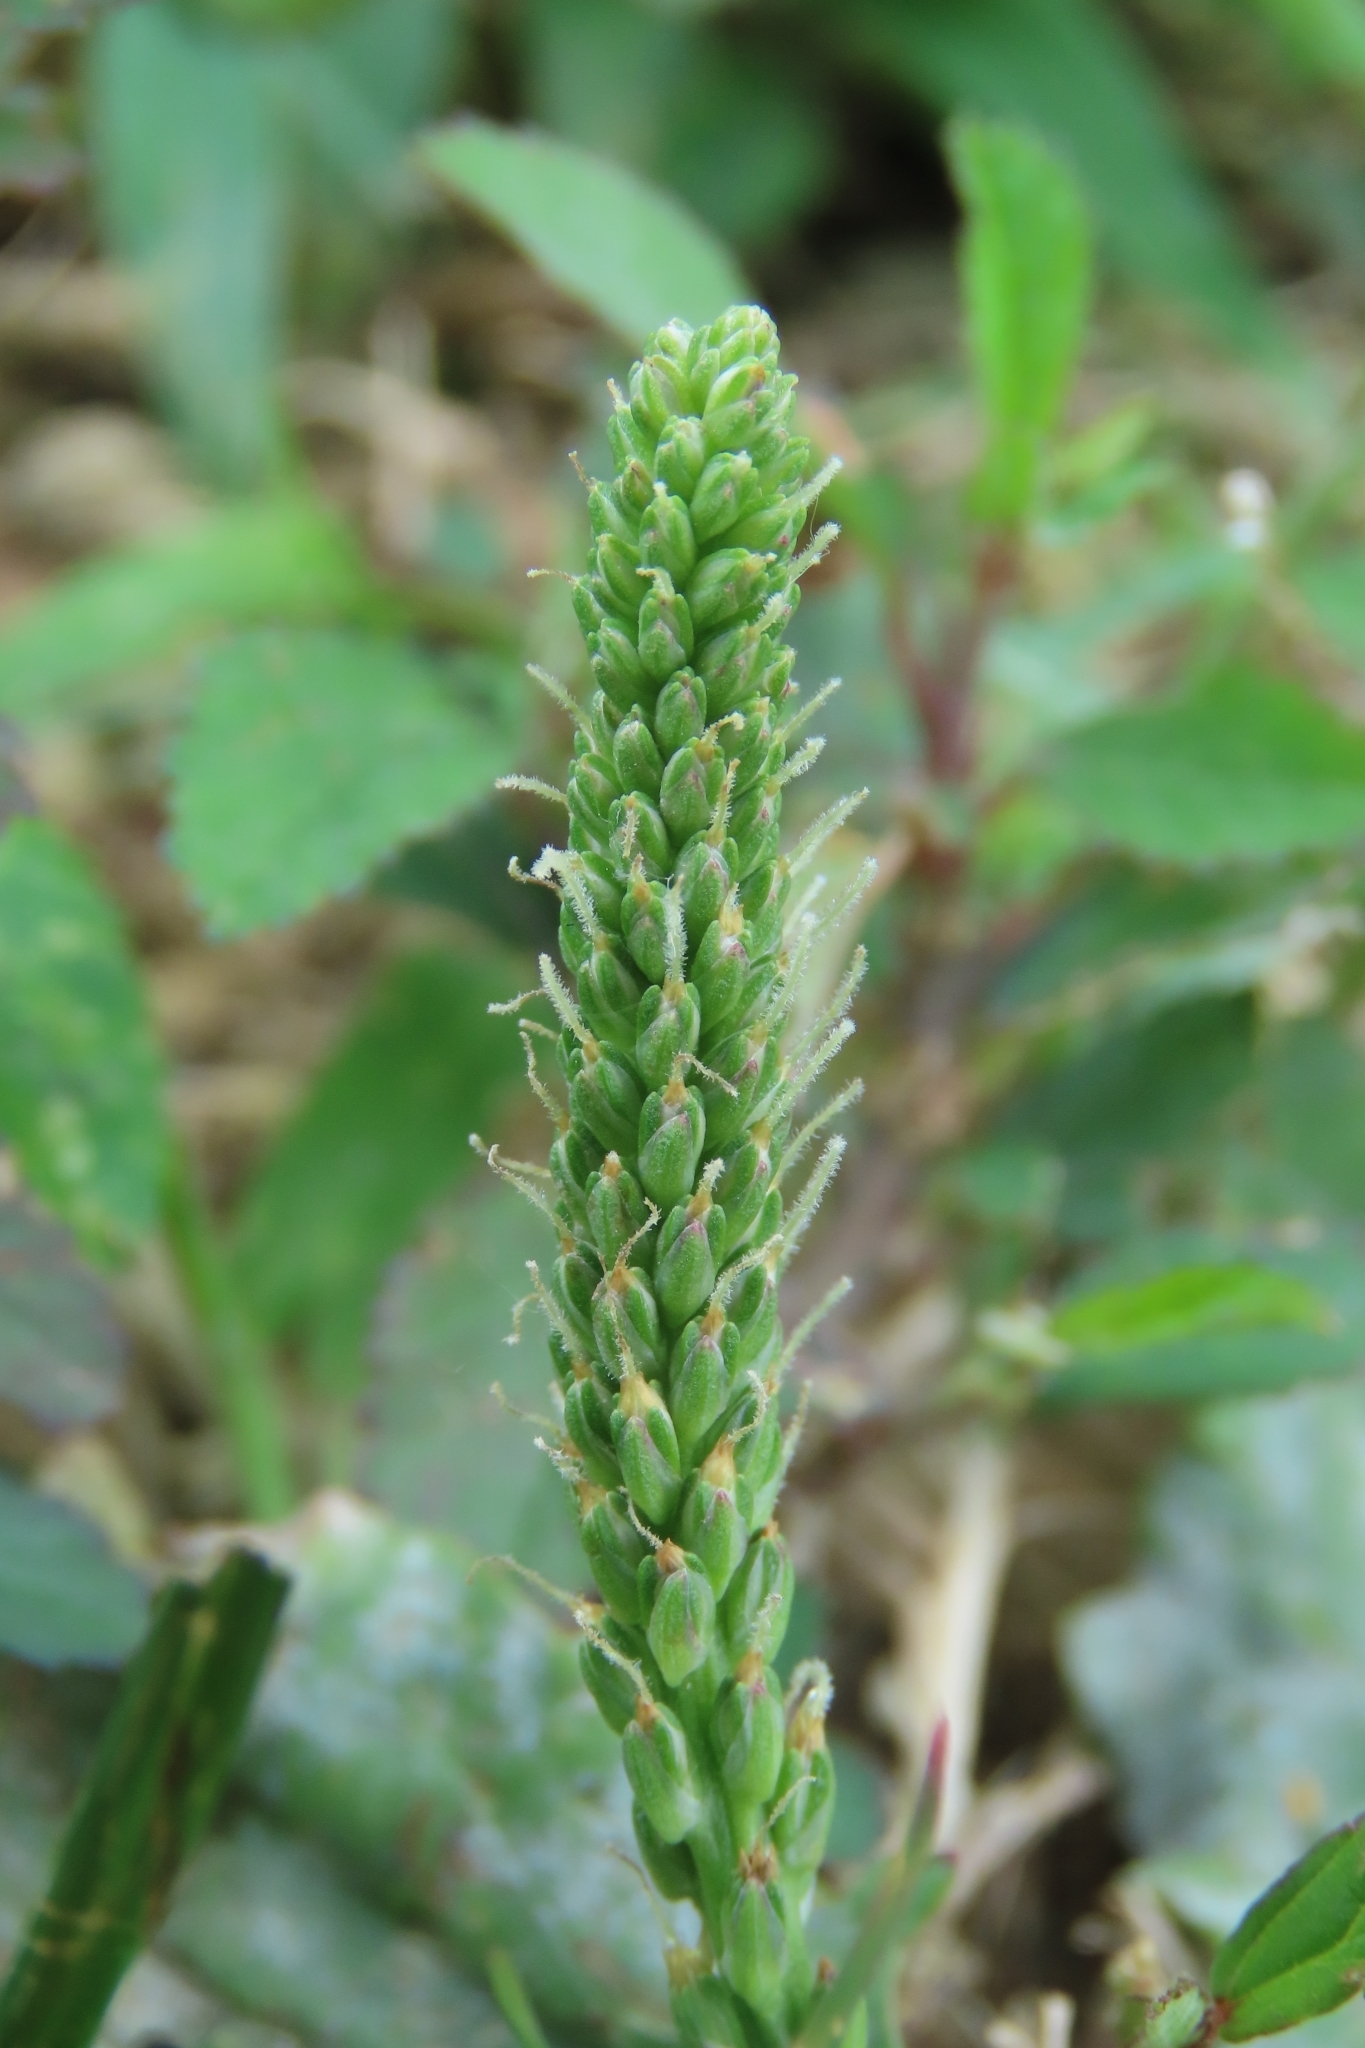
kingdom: Plantae
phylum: Tracheophyta
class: Magnoliopsida
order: Lamiales
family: Plantaginaceae
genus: Plantago
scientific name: Plantago major
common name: Common plantain
